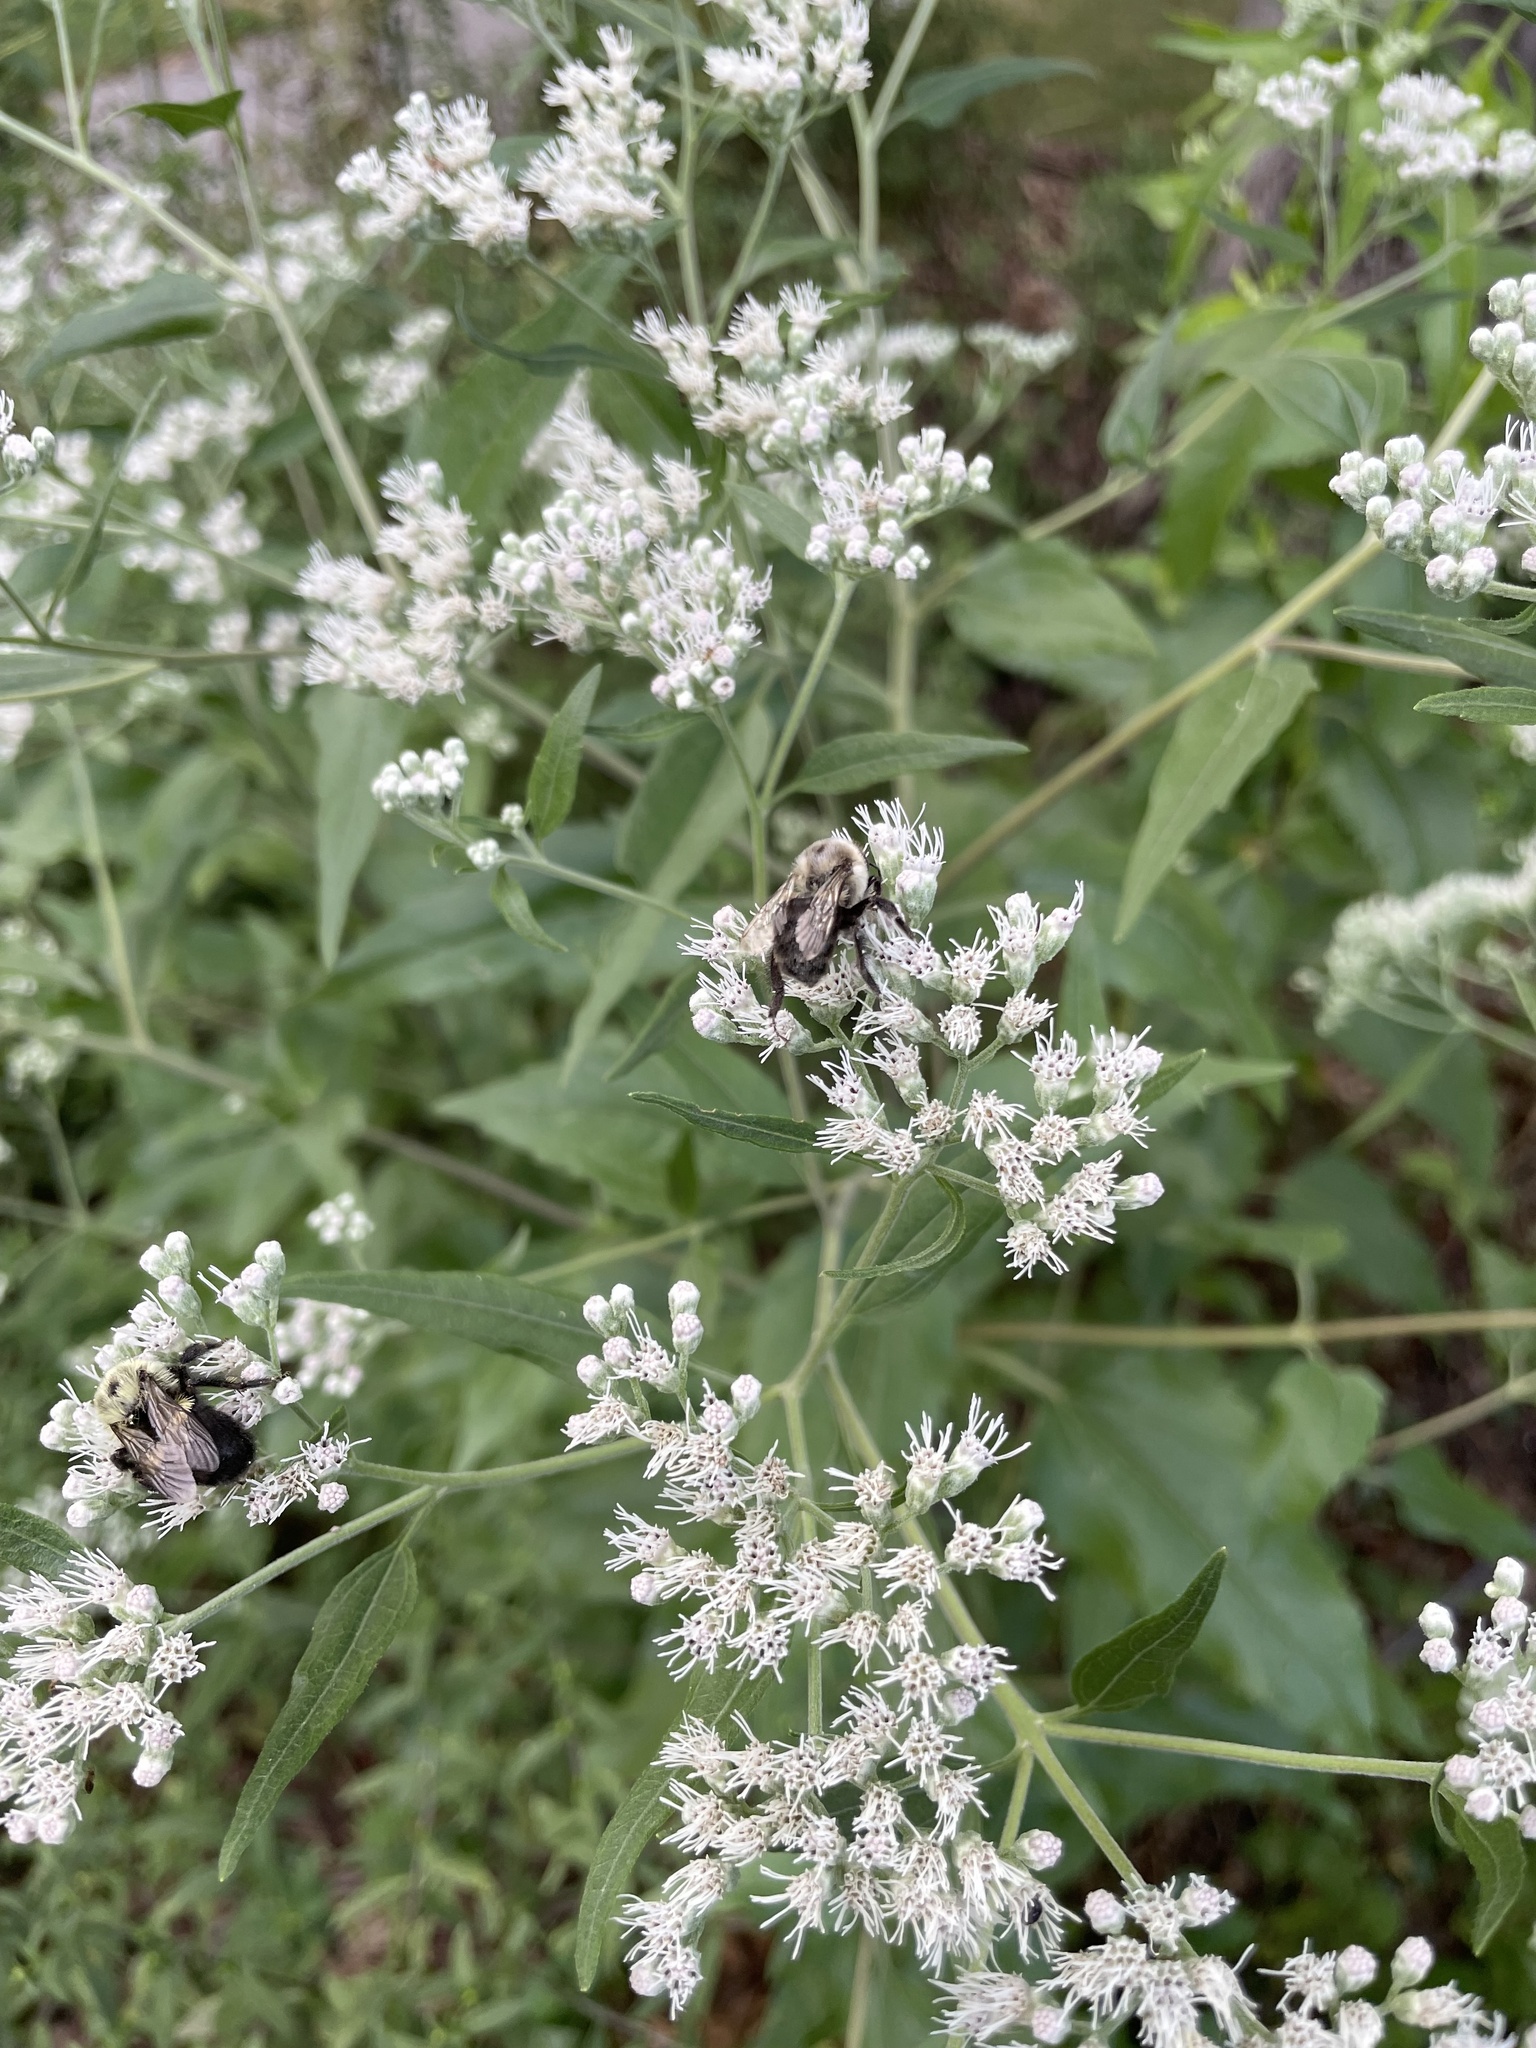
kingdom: Animalia
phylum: Arthropoda
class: Insecta
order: Hymenoptera
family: Apidae
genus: Bombus
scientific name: Bombus impatiens
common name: Common eastern bumble bee
